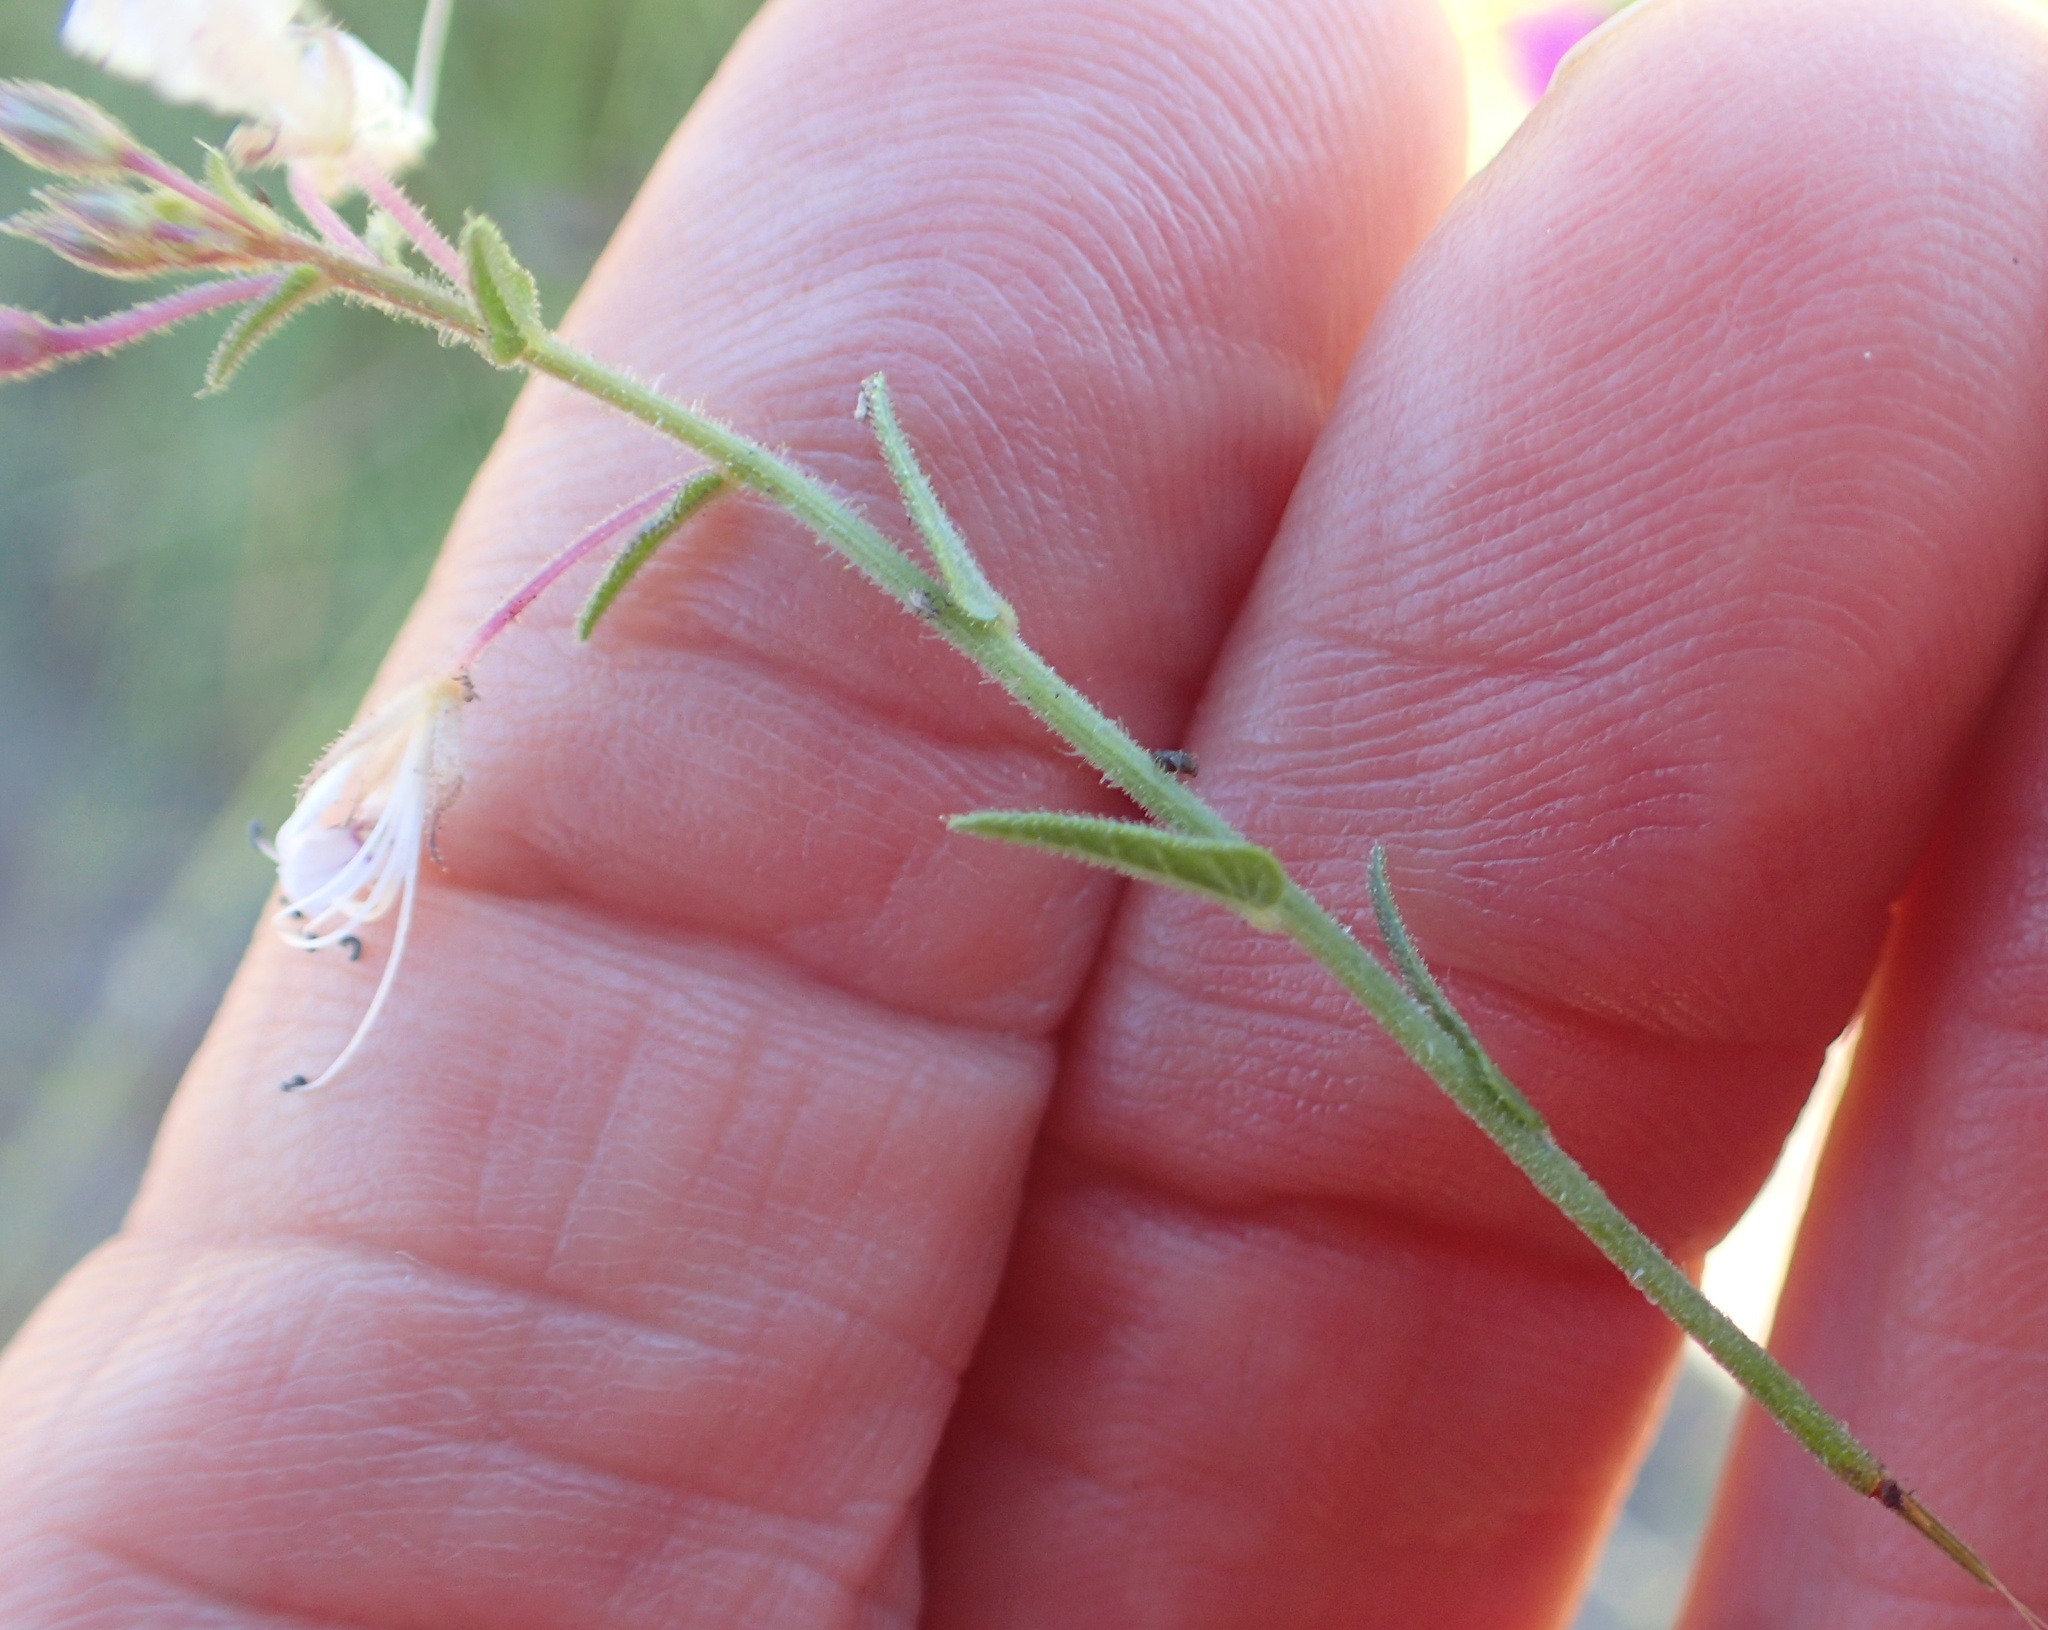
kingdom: Plantae
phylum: Tracheophyta
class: Magnoliopsida
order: Brassicales
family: Cleomaceae
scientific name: Cleomaceae
